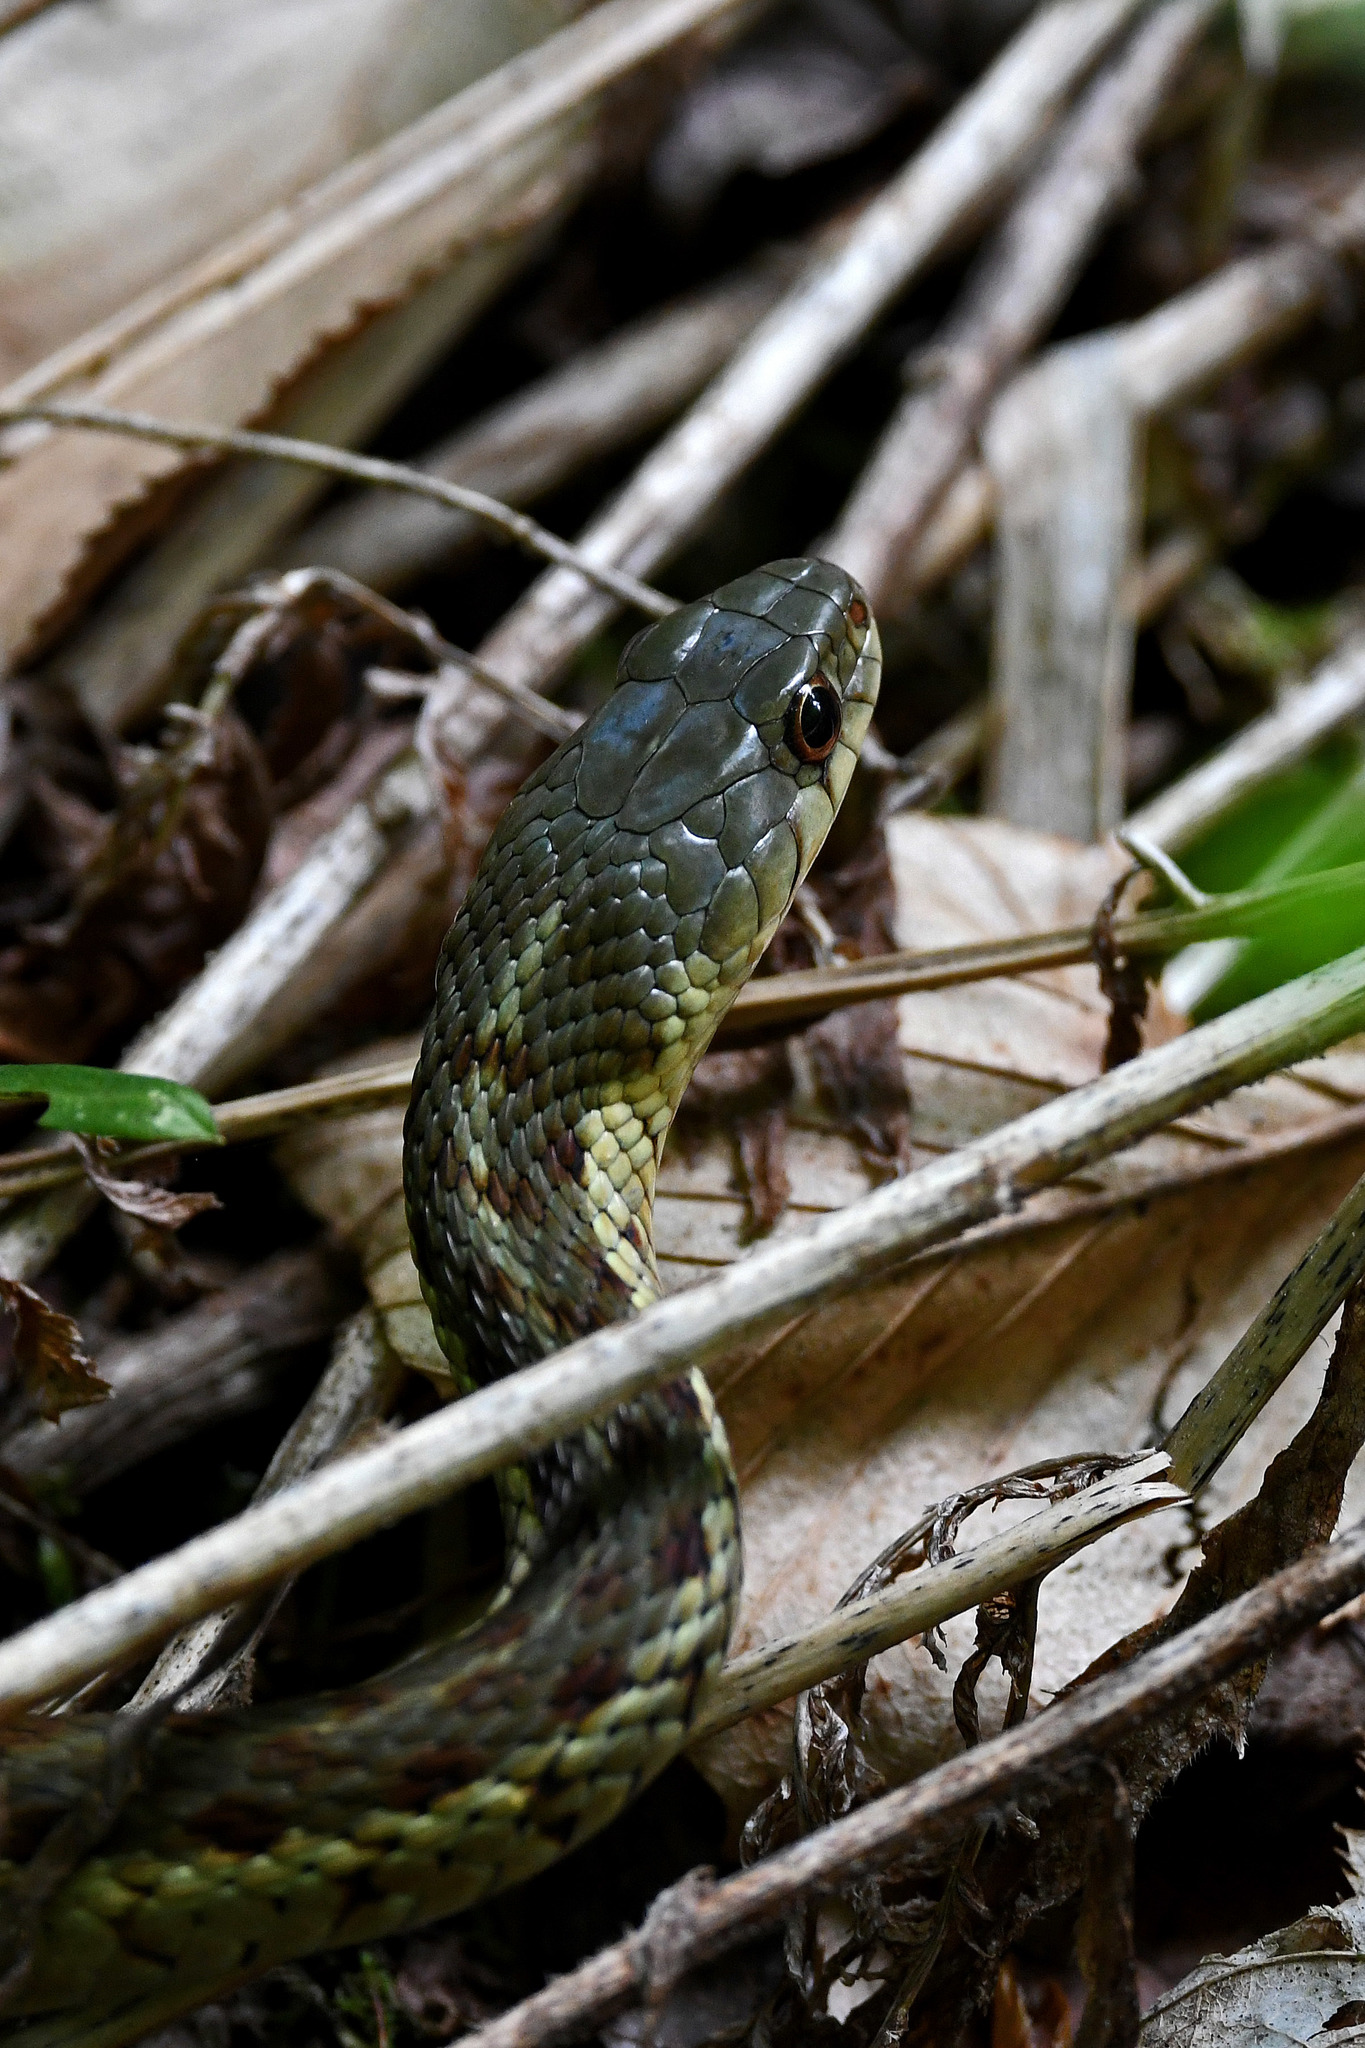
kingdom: Animalia
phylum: Chordata
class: Squamata
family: Colubridae
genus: Thamnophis
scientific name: Thamnophis sirtalis
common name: Common garter snake
